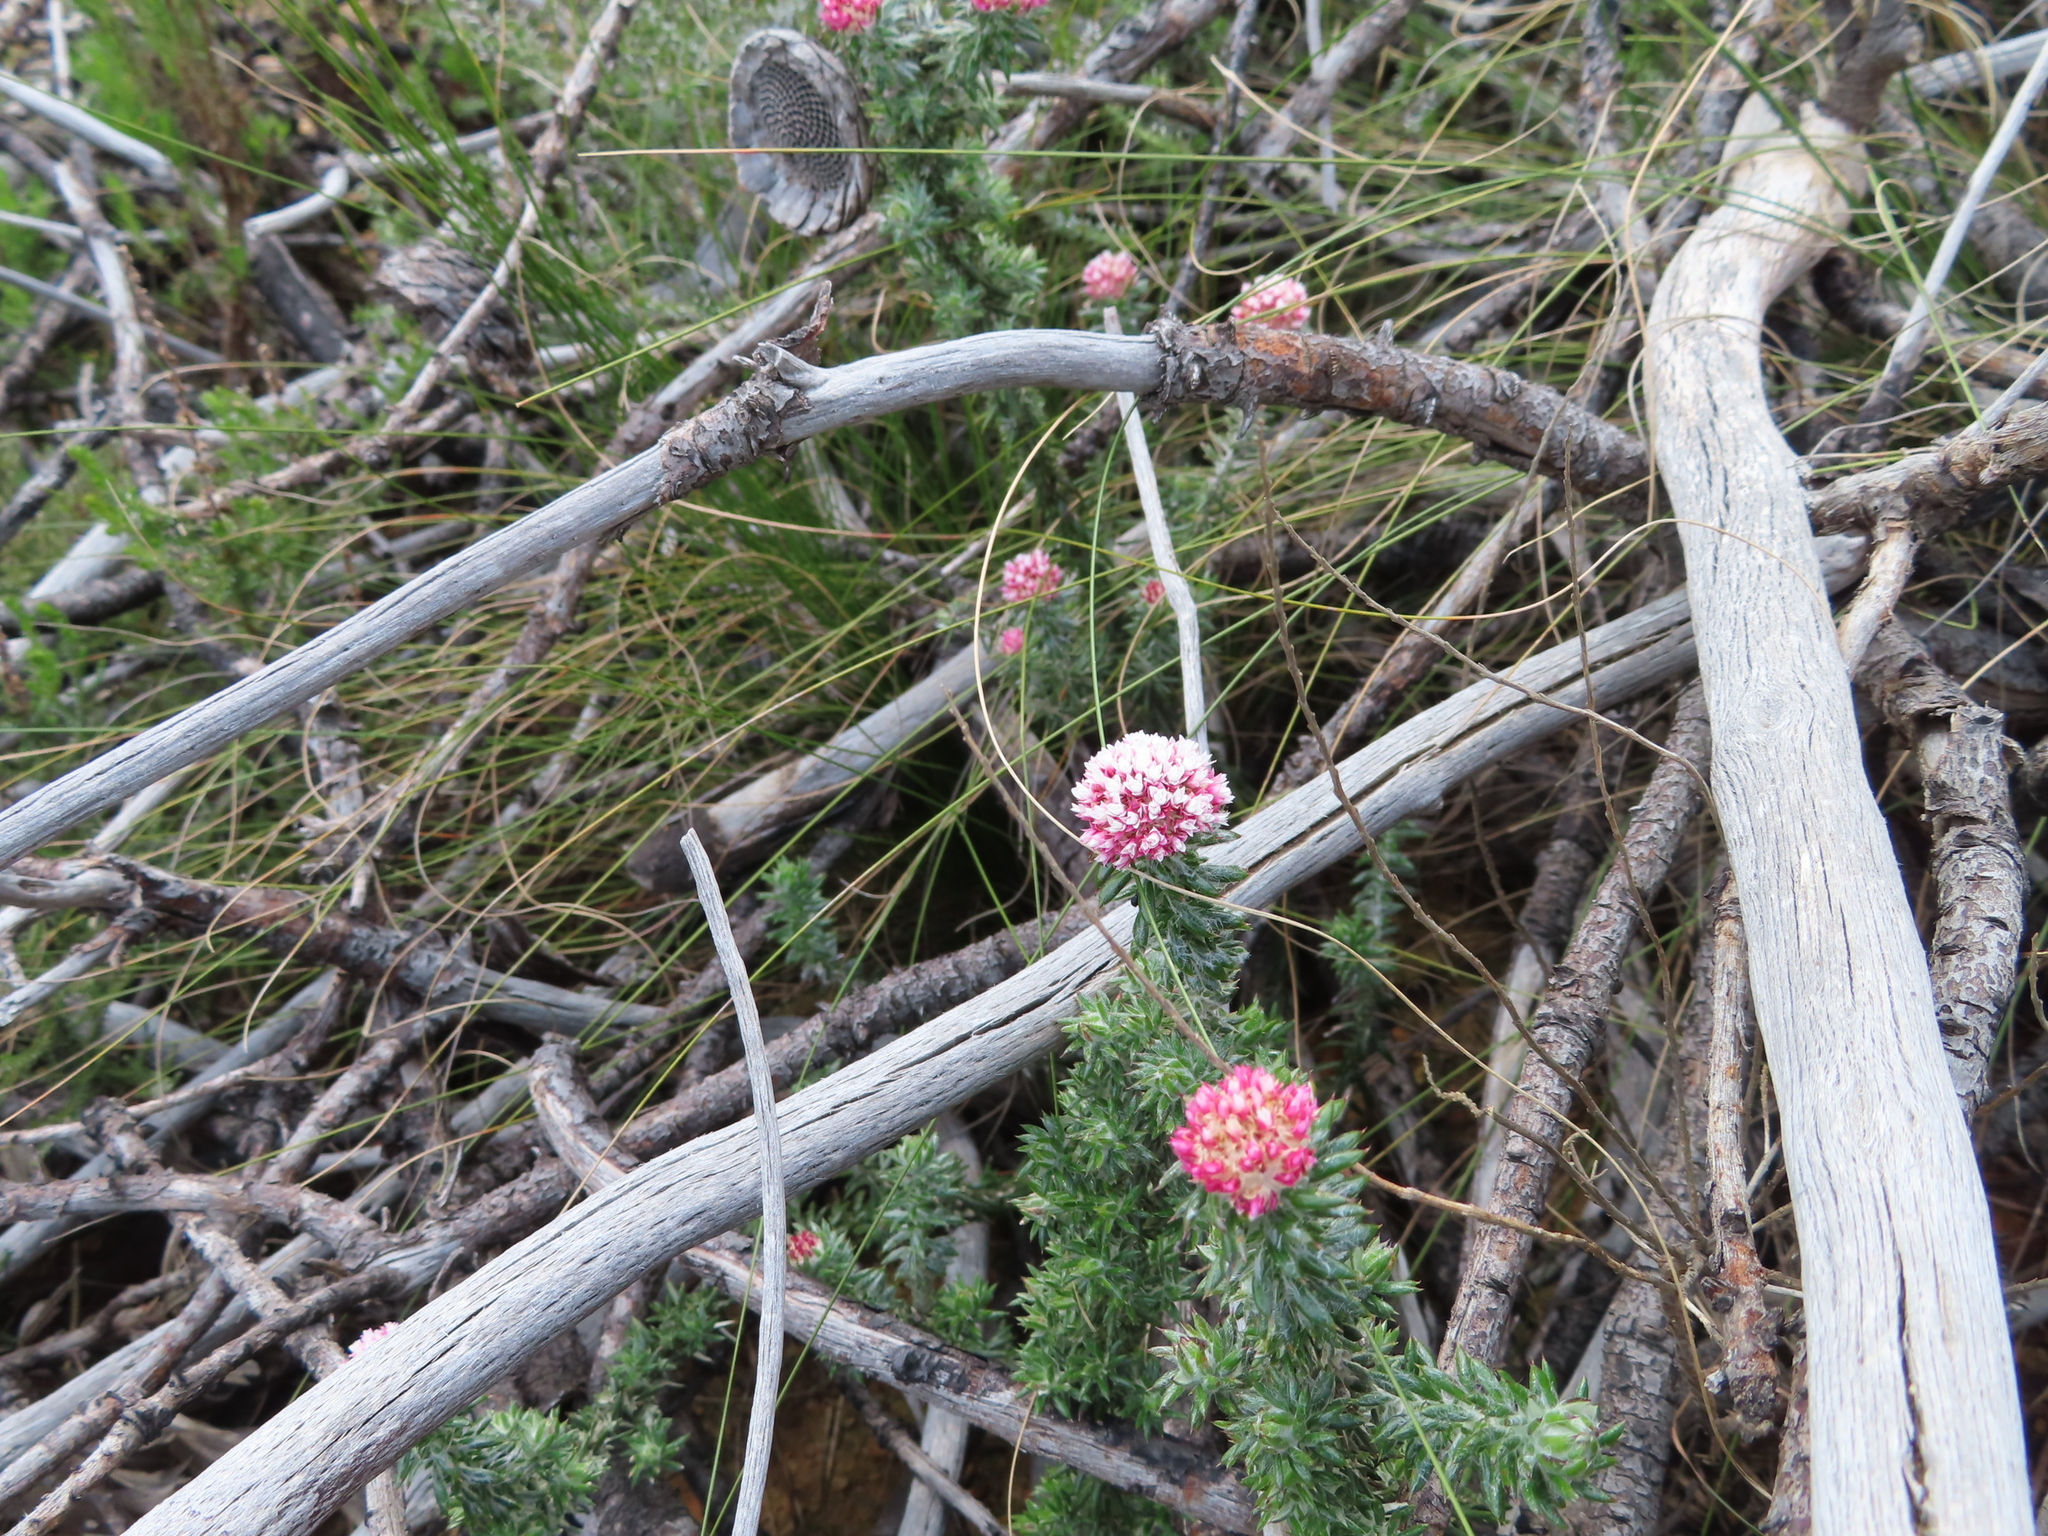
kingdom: Plantae
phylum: Tracheophyta
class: Magnoliopsida
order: Asterales
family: Asteraceae
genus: Metalasia
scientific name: Metalasia erubescens
